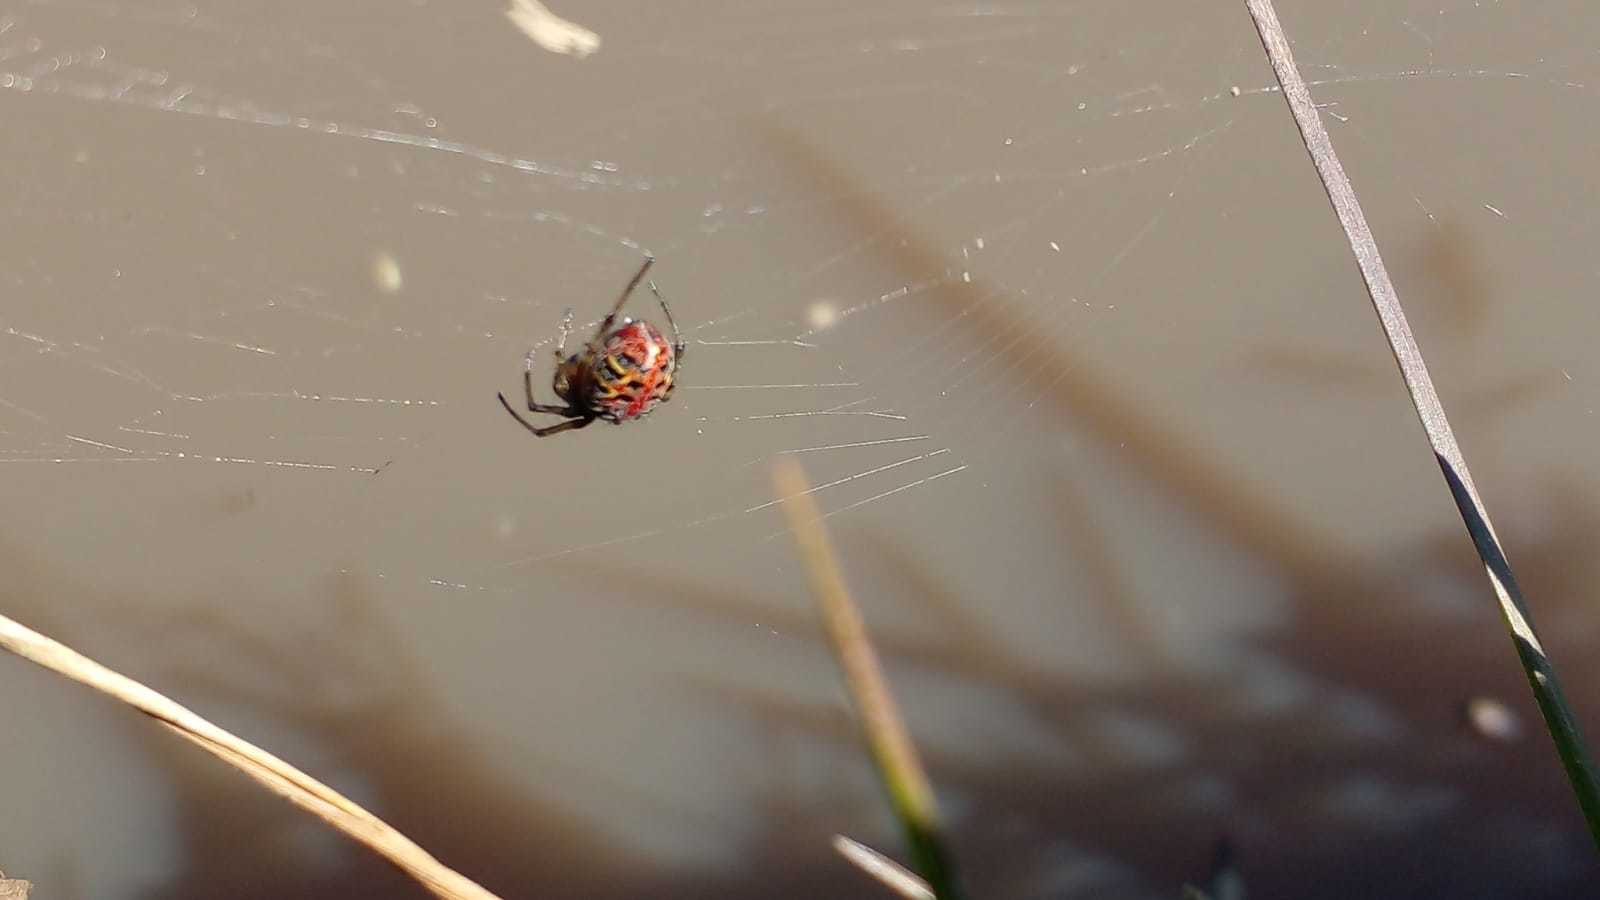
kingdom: Animalia
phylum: Arthropoda
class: Arachnida
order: Araneae
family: Araneidae
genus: Alpaida
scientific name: Alpaida versicolor
